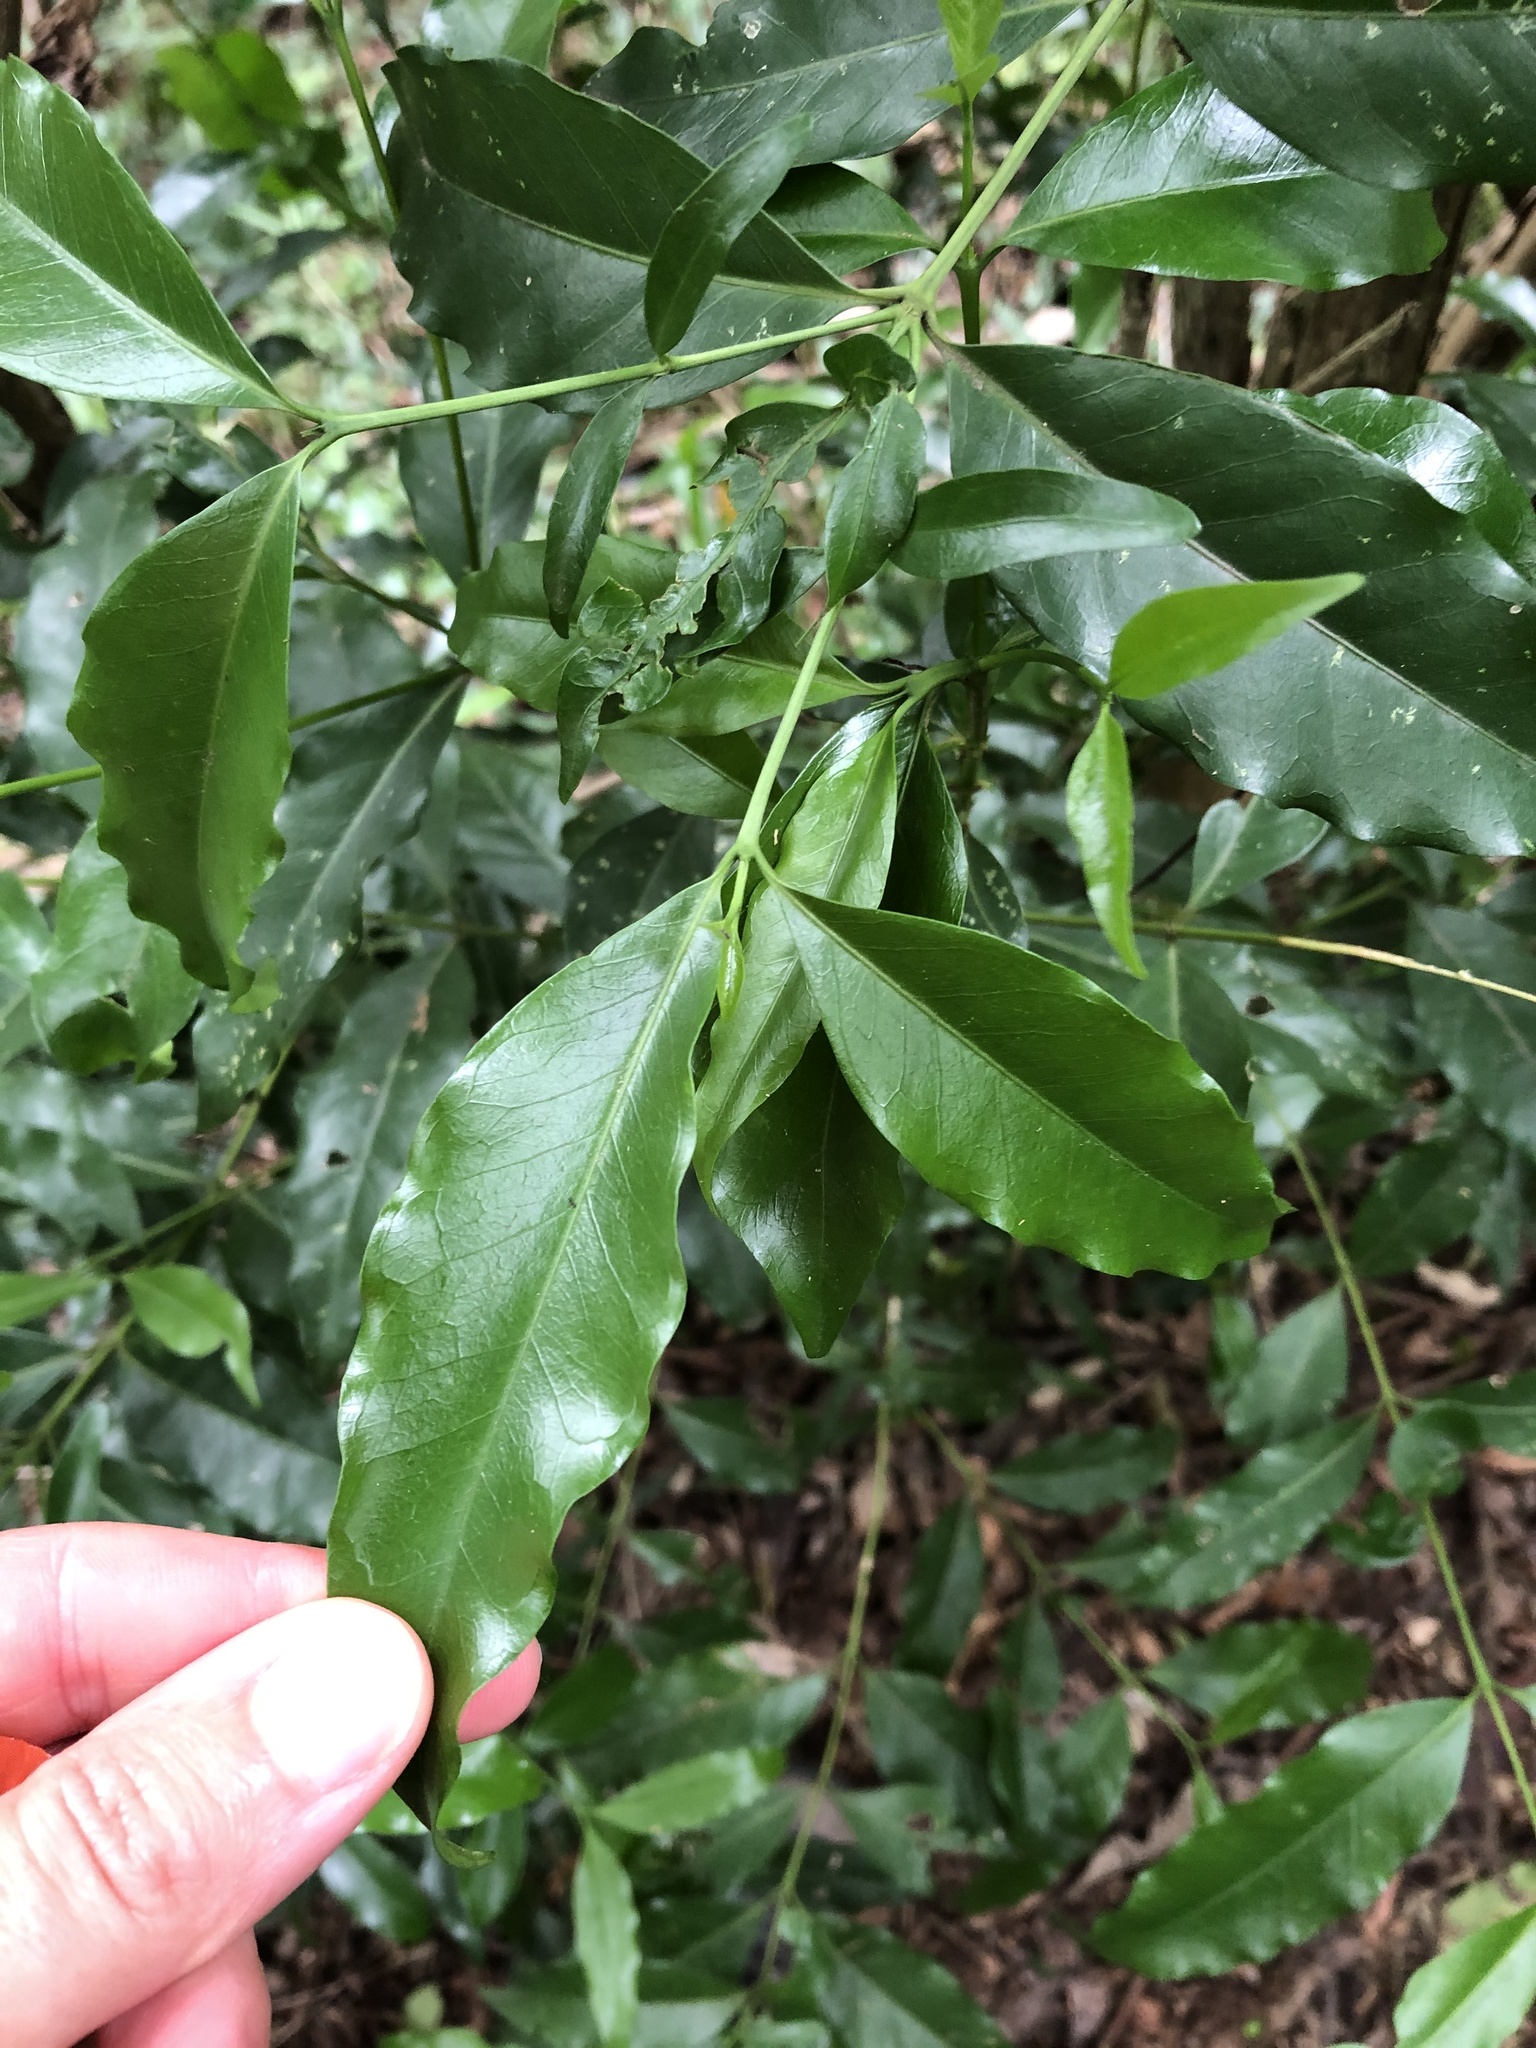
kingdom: Plantae
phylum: Tracheophyta
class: Magnoliopsida
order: Gentianales
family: Rubiaceae
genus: Empogona
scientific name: Empogona lanceolata
